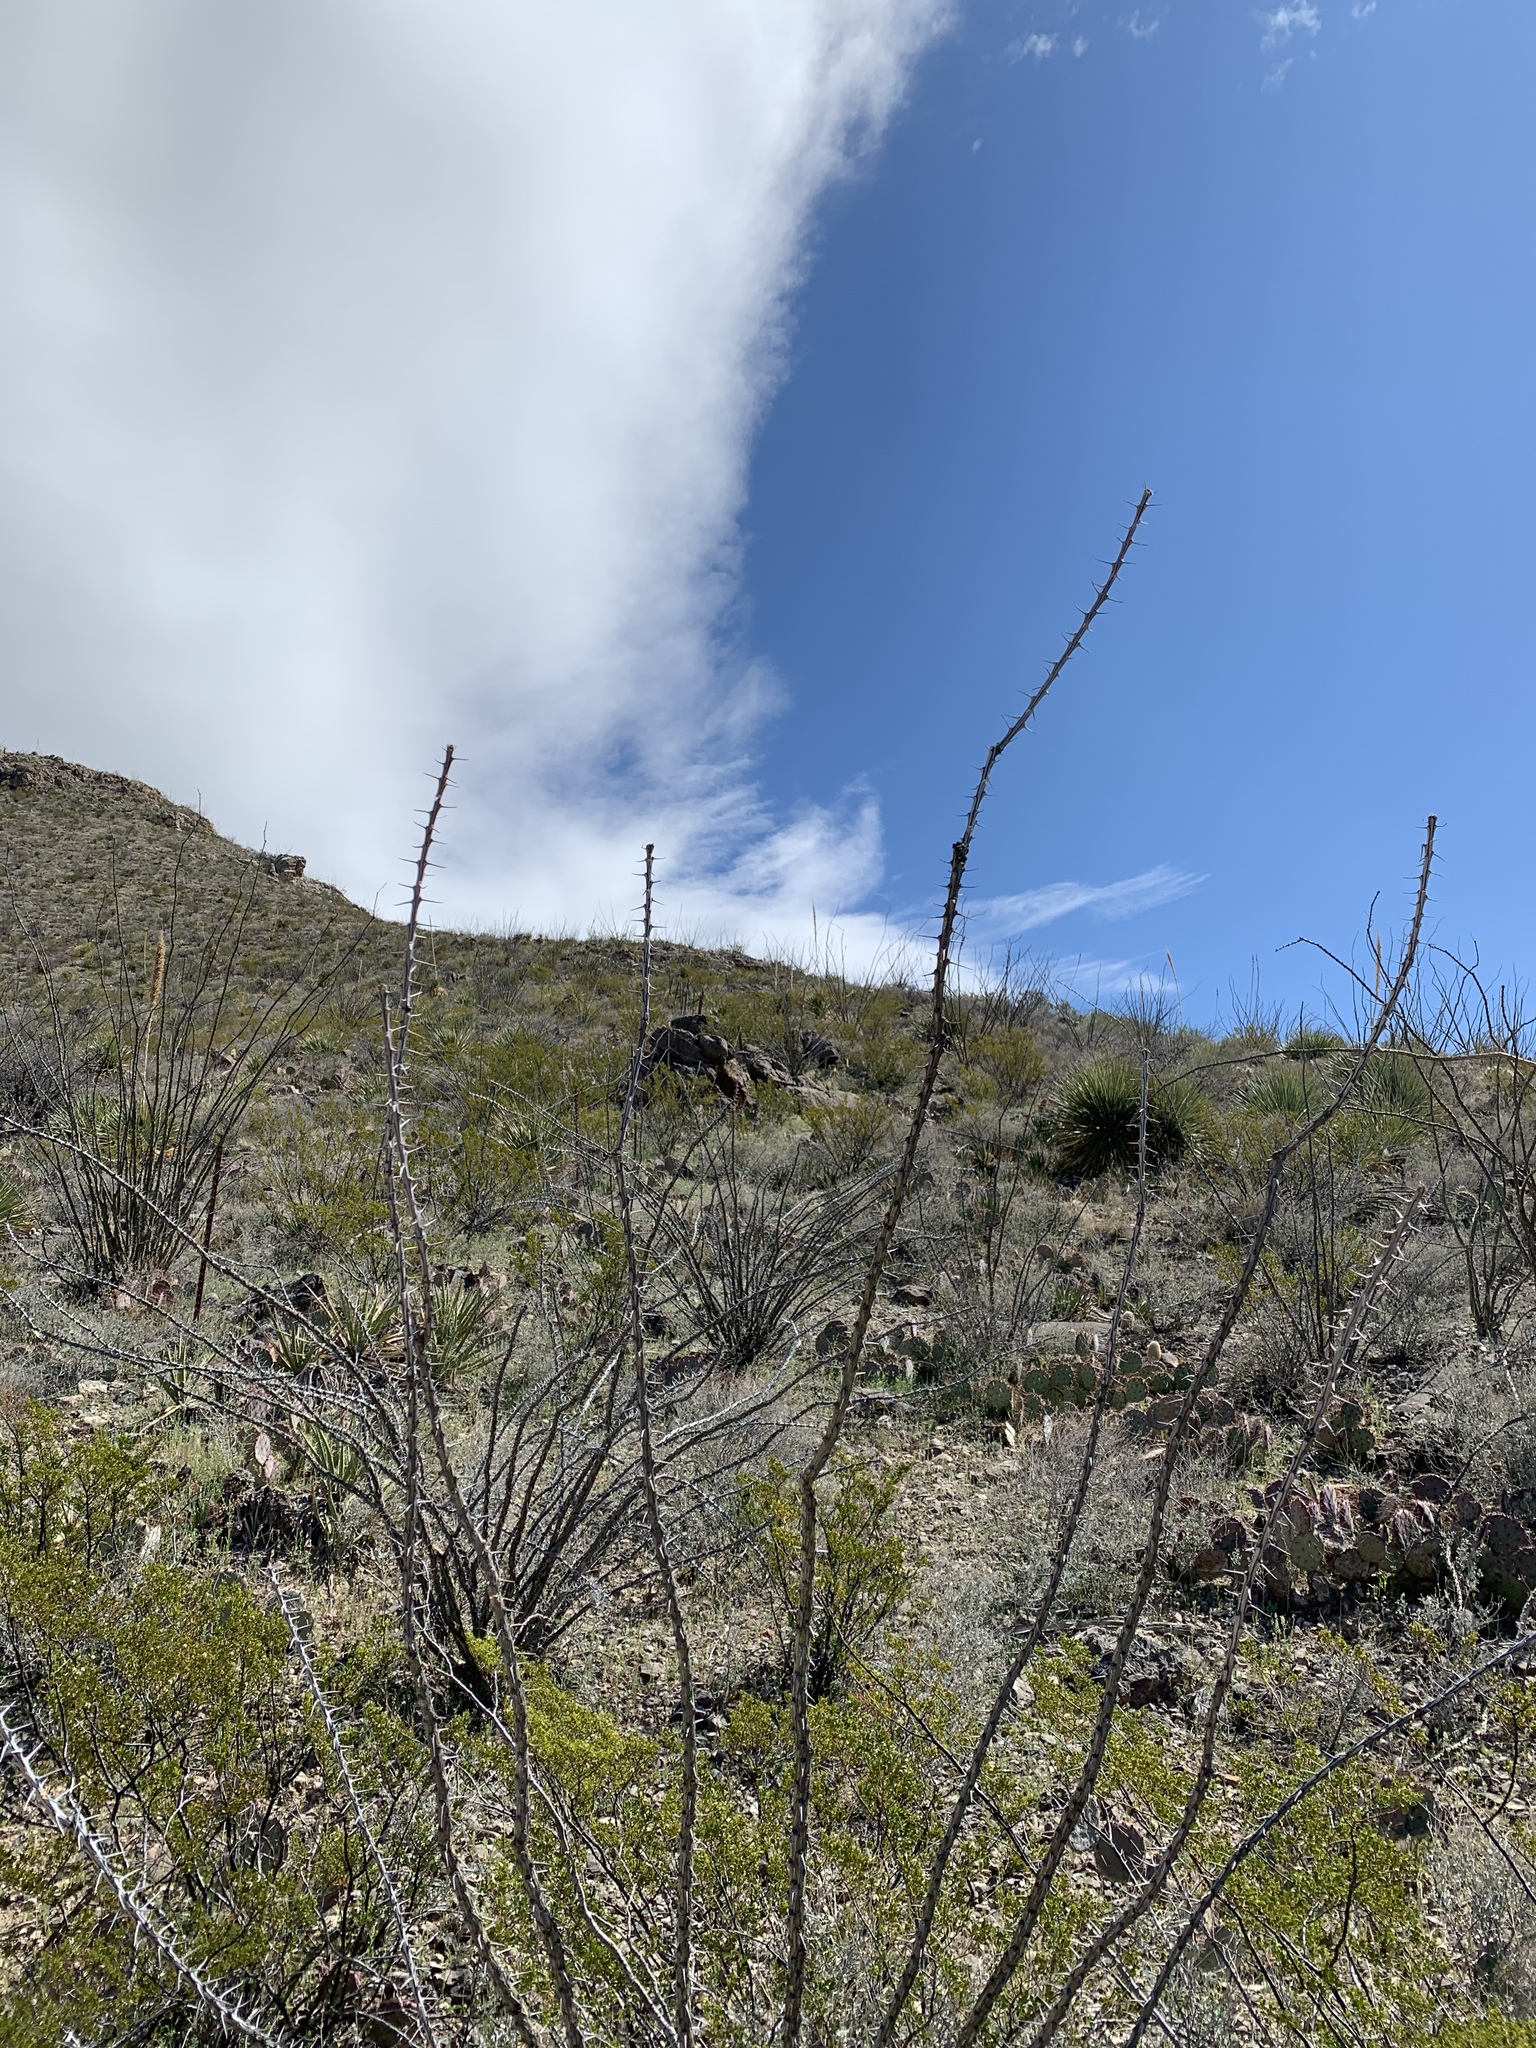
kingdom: Plantae
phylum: Tracheophyta
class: Magnoliopsida
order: Ericales
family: Fouquieriaceae
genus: Fouquieria
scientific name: Fouquieria splendens
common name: Vine-cactus
